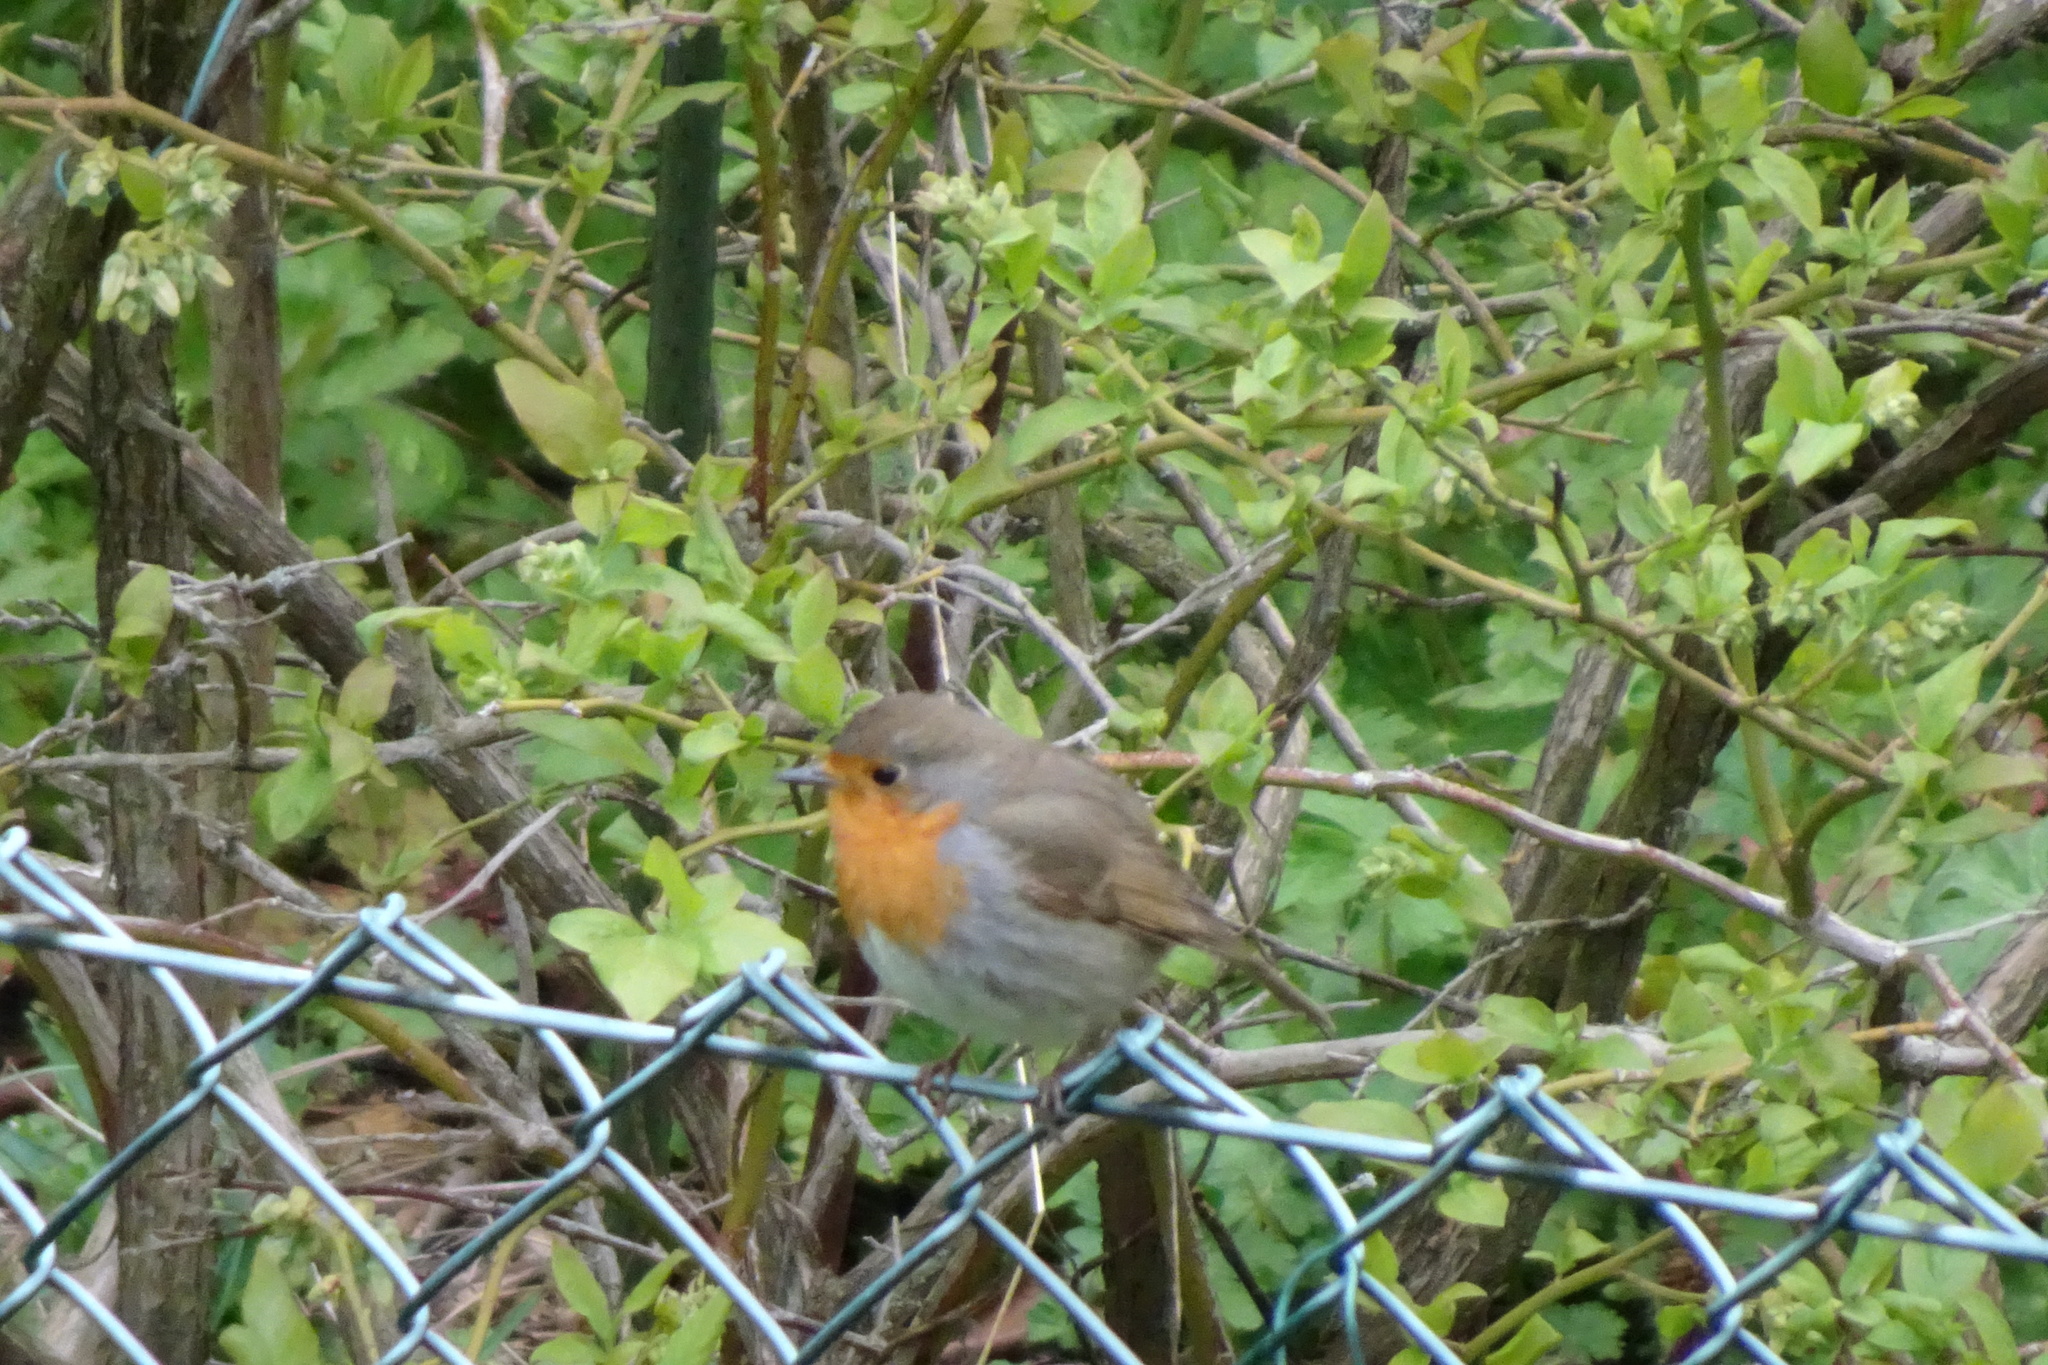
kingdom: Animalia
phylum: Chordata
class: Aves
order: Passeriformes
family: Muscicapidae
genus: Erithacus
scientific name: Erithacus rubecula
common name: European robin
